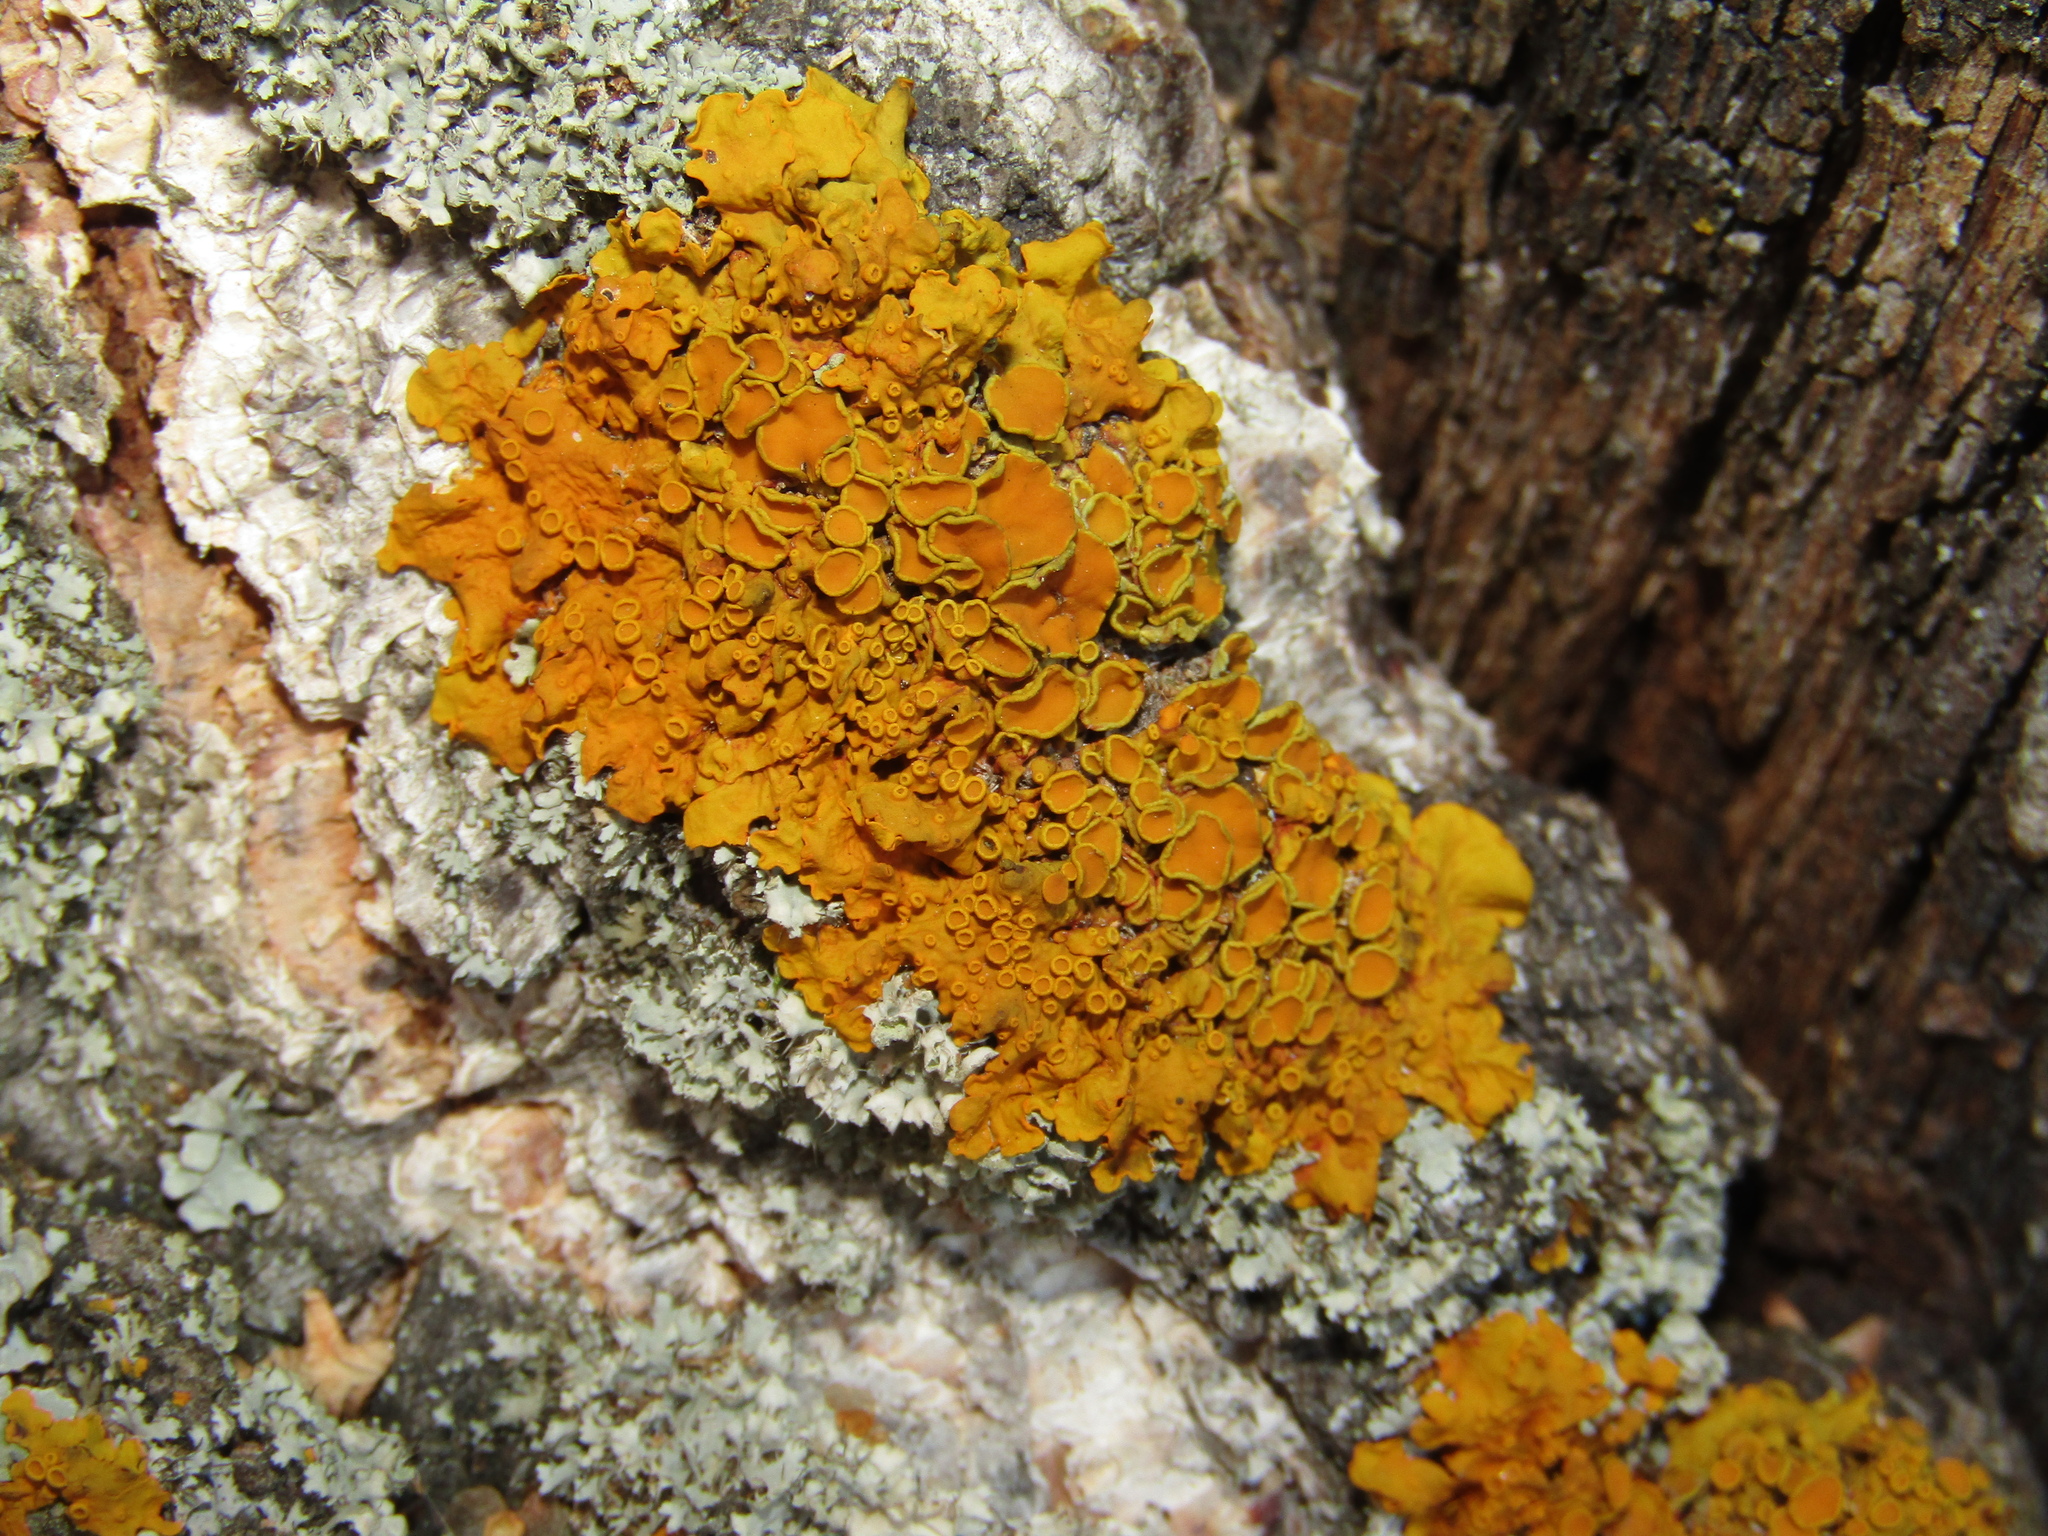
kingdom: Fungi
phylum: Ascomycota
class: Lecanoromycetes
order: Teloschistales
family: Teloschistaceae
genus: Xanthoria
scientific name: Xanthoria parietina
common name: Common orange lichen
